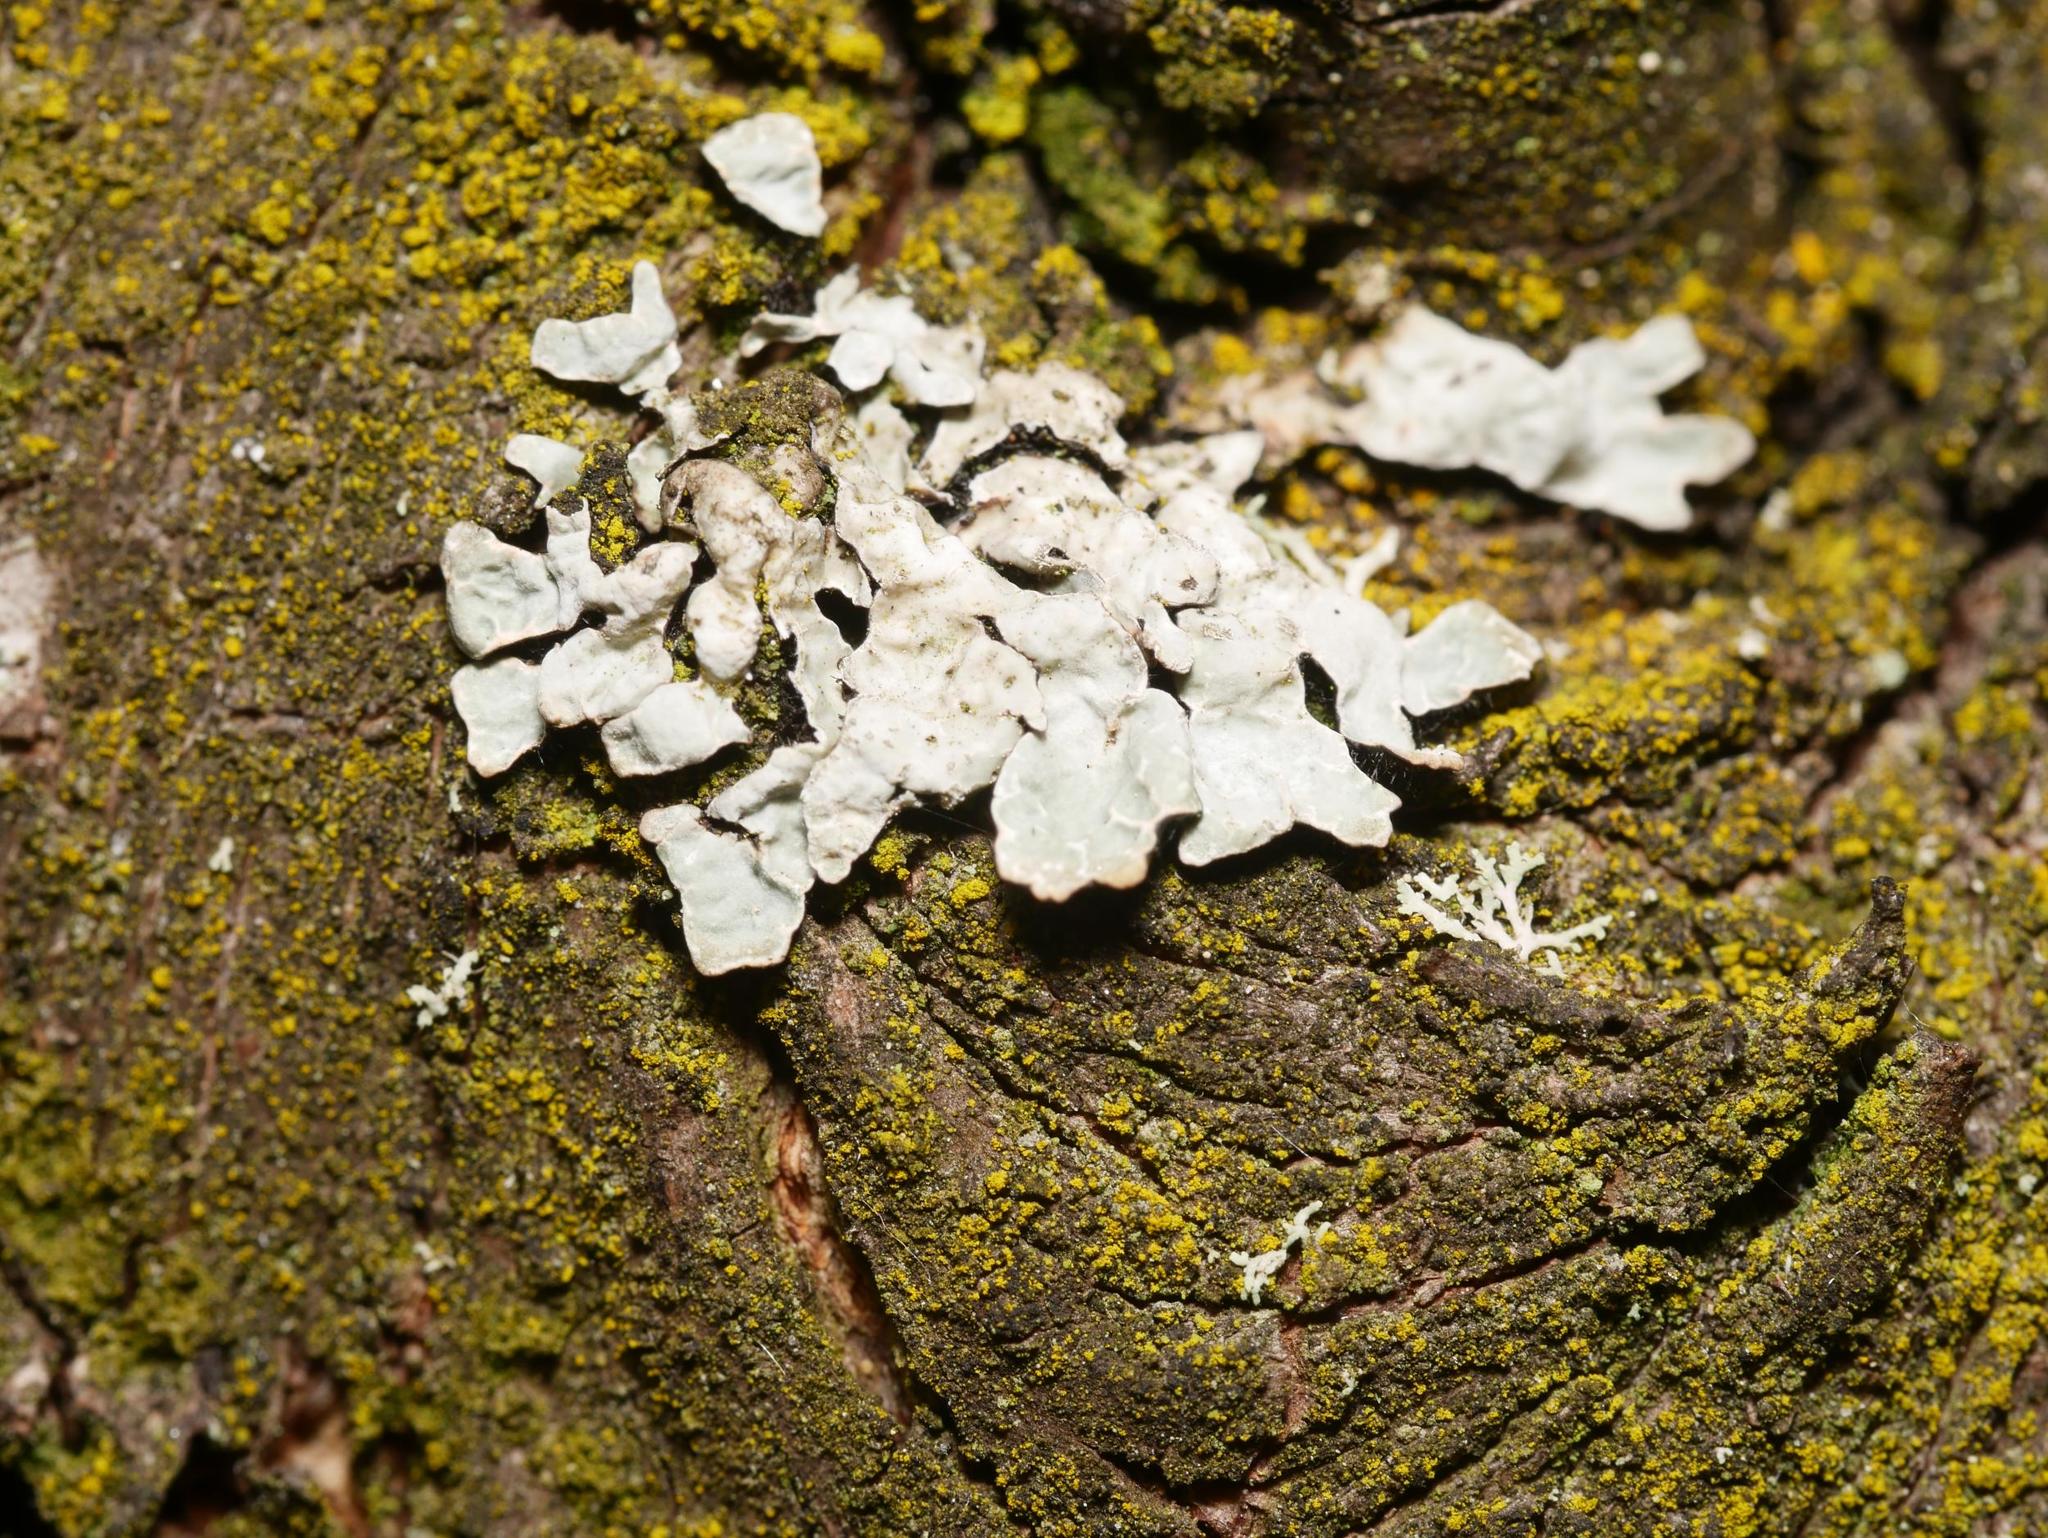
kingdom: Fungi
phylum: Ascomycota
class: Lecanoromycetes
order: Lecanorales
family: Parmeliaceae
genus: Parmelia
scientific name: Parmelia sulcata
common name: Netted shield lichen
